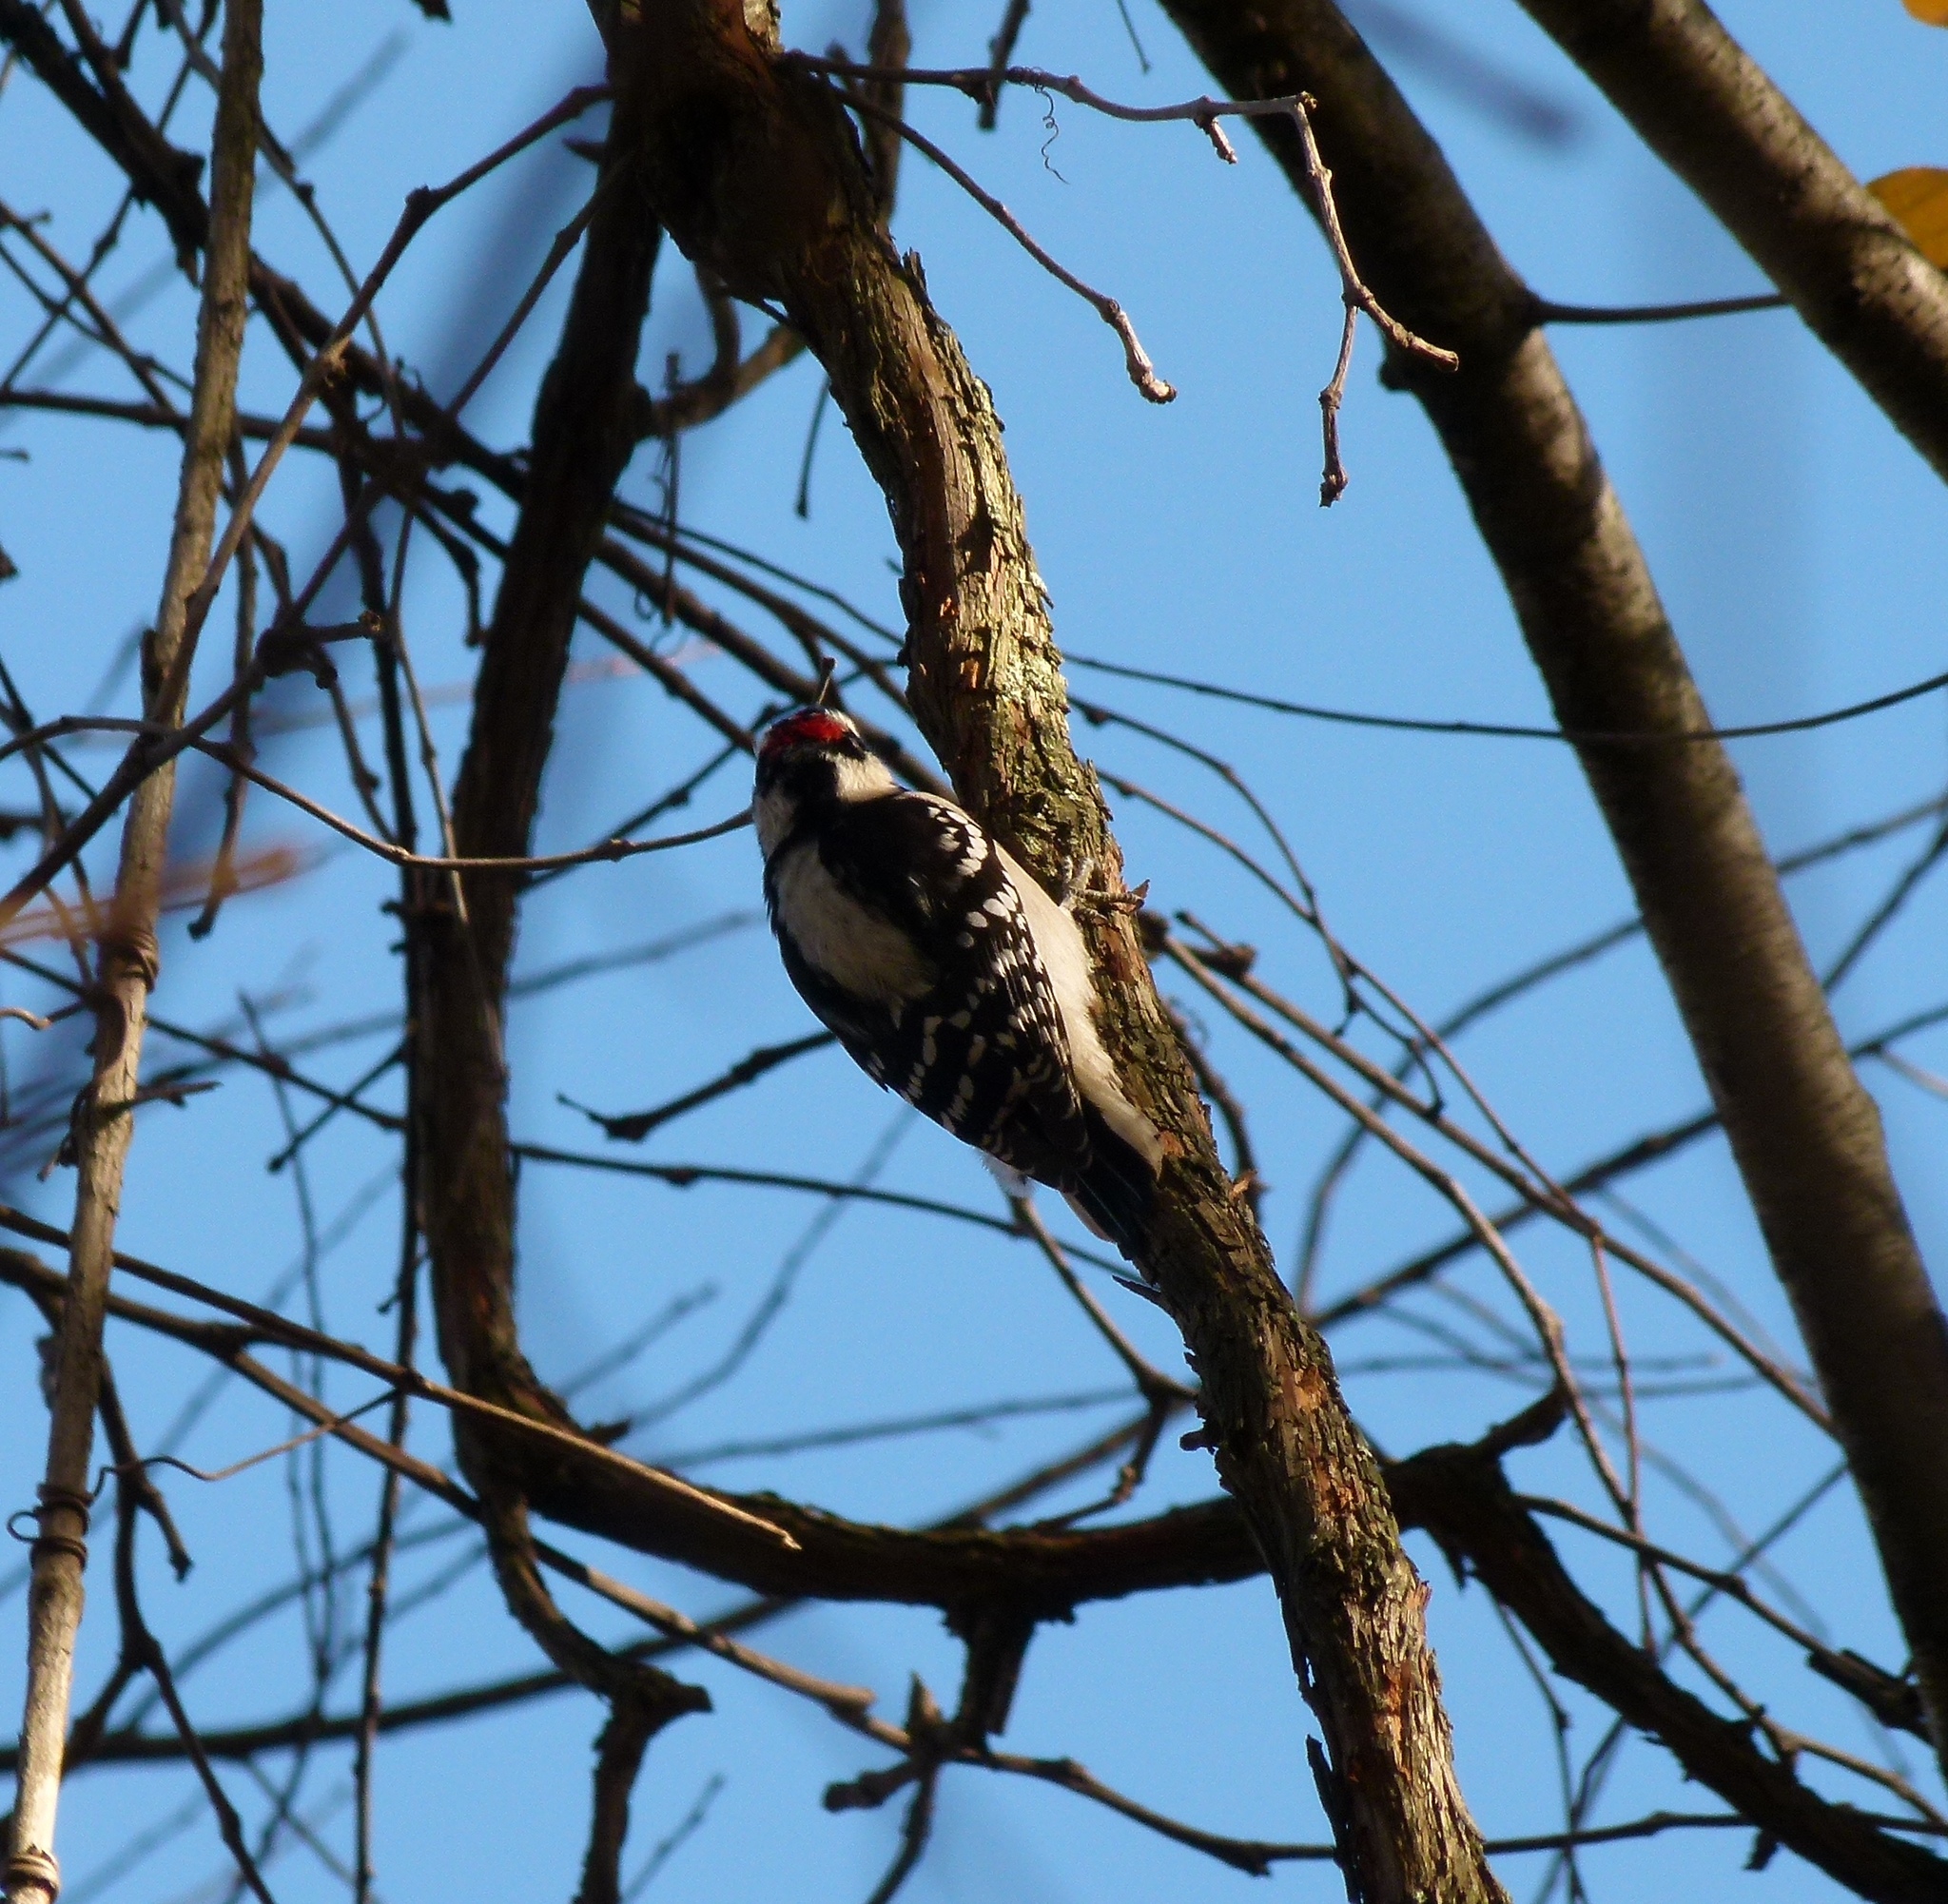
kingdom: Animalia
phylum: Chordata
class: Aves
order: Piciformes
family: Picidae
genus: Dryobates
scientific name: Dryobates pubescens
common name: Downy woodpecker
